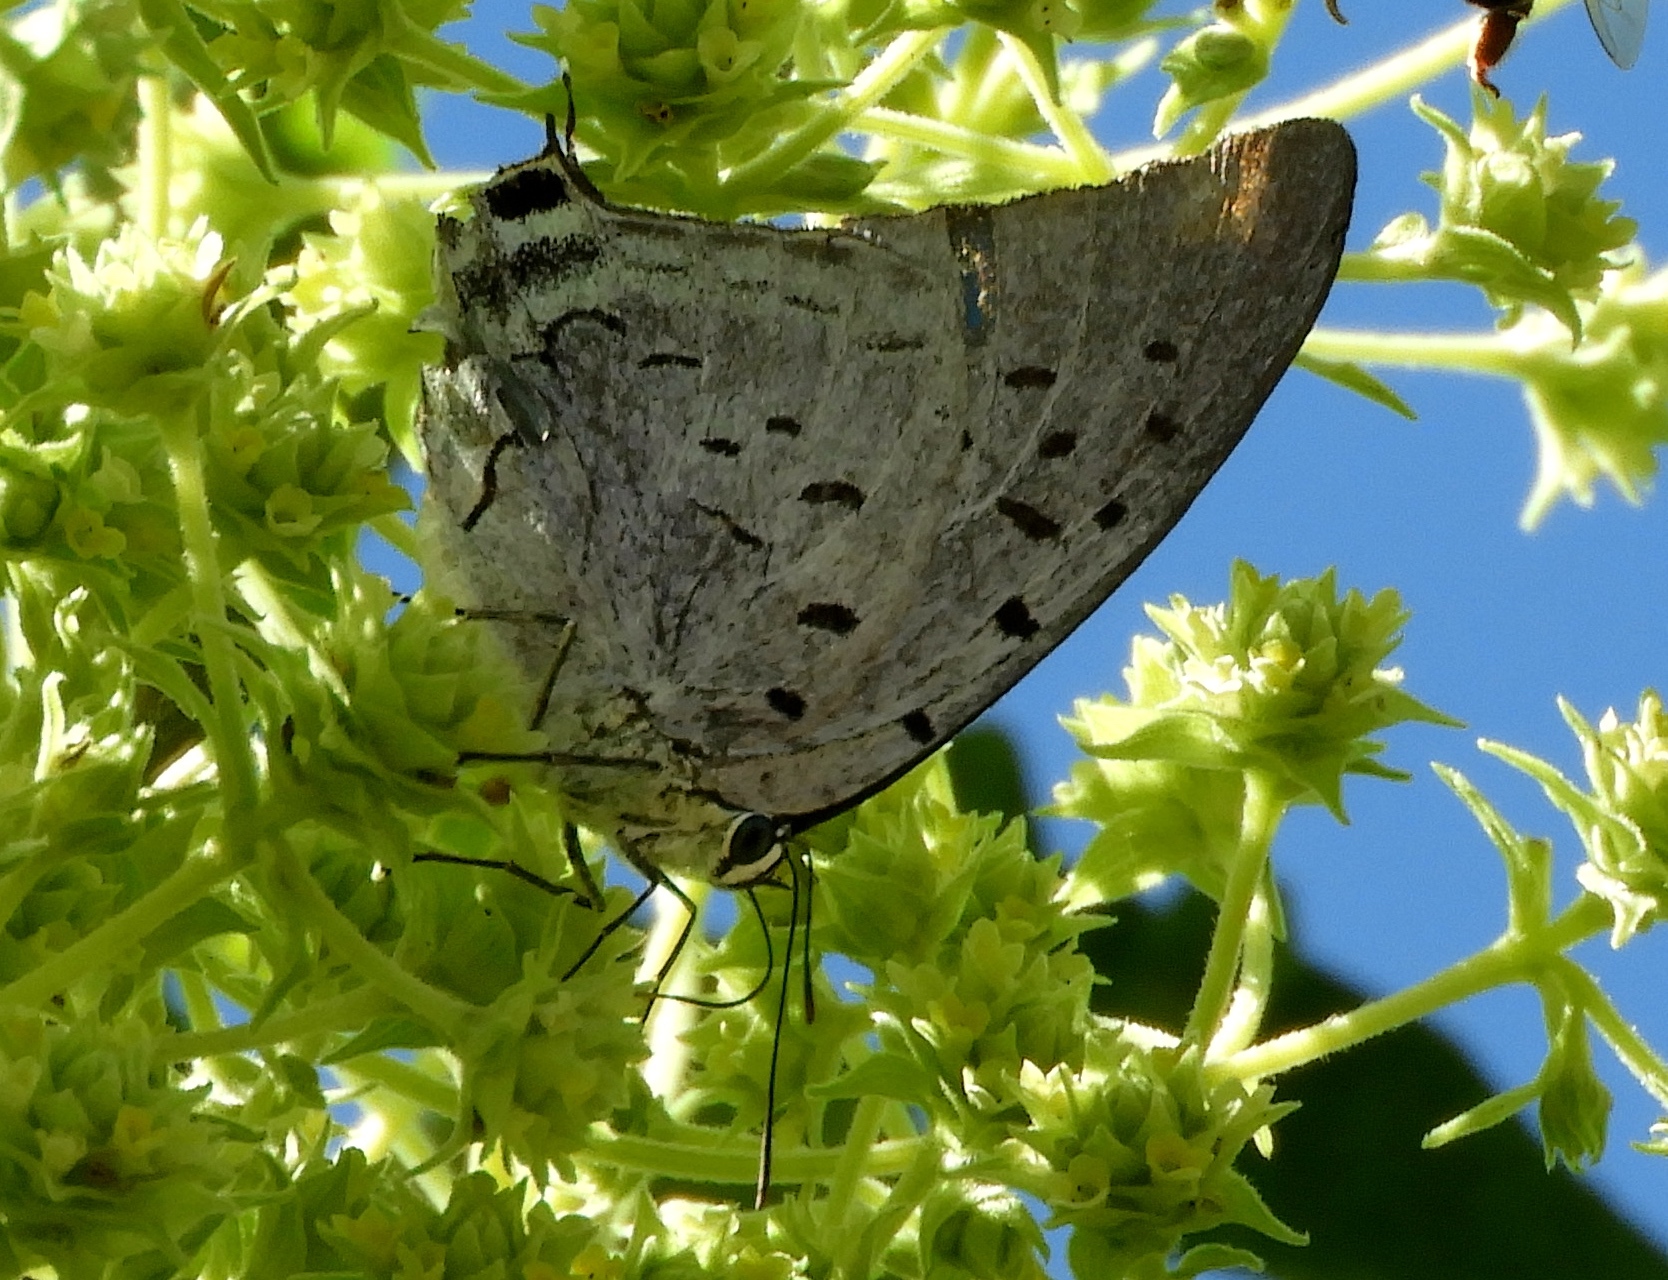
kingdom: Animalia
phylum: Arthropoda
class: Insecta
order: Lepidoptera
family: Lycaenidae
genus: Pseudolycaena
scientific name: Pseudolycaena damo
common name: Sky-blue hairstreak
